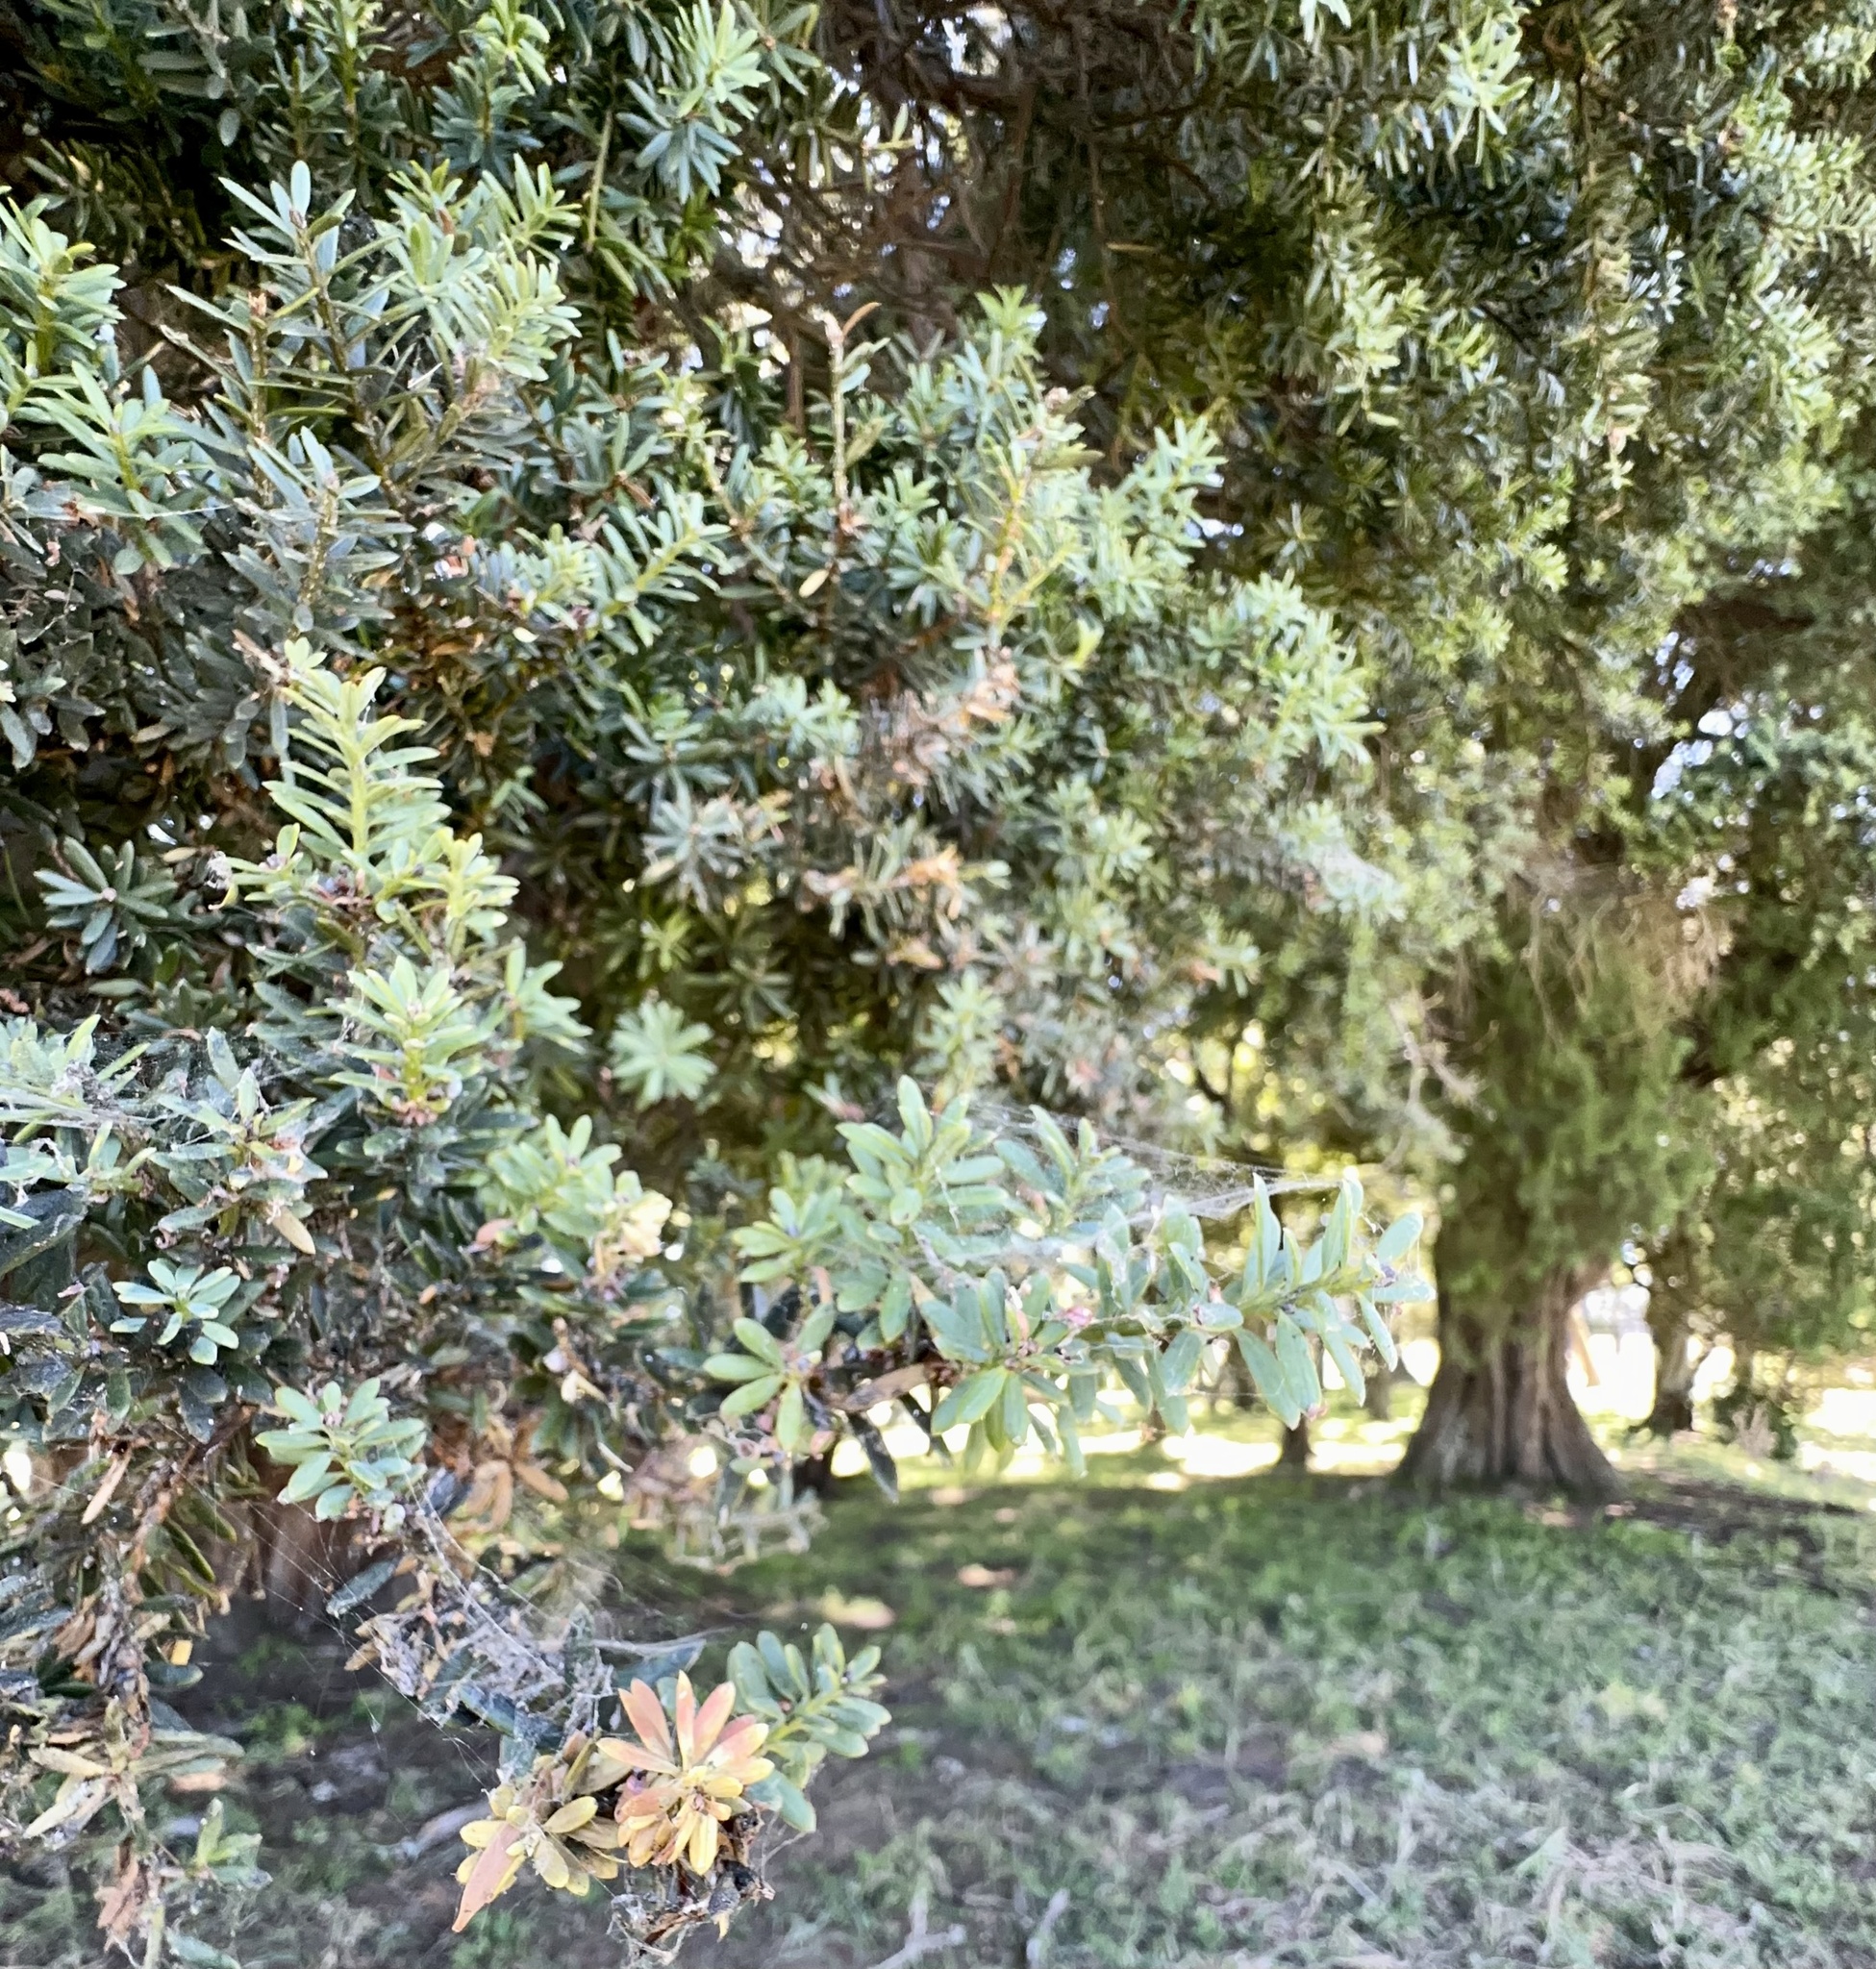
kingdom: Plantae
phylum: Tracheophyta
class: Pinopsida
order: Pinales
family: Podocarpaceae
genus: Podocarpus
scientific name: Podocarpus totara
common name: Totara
